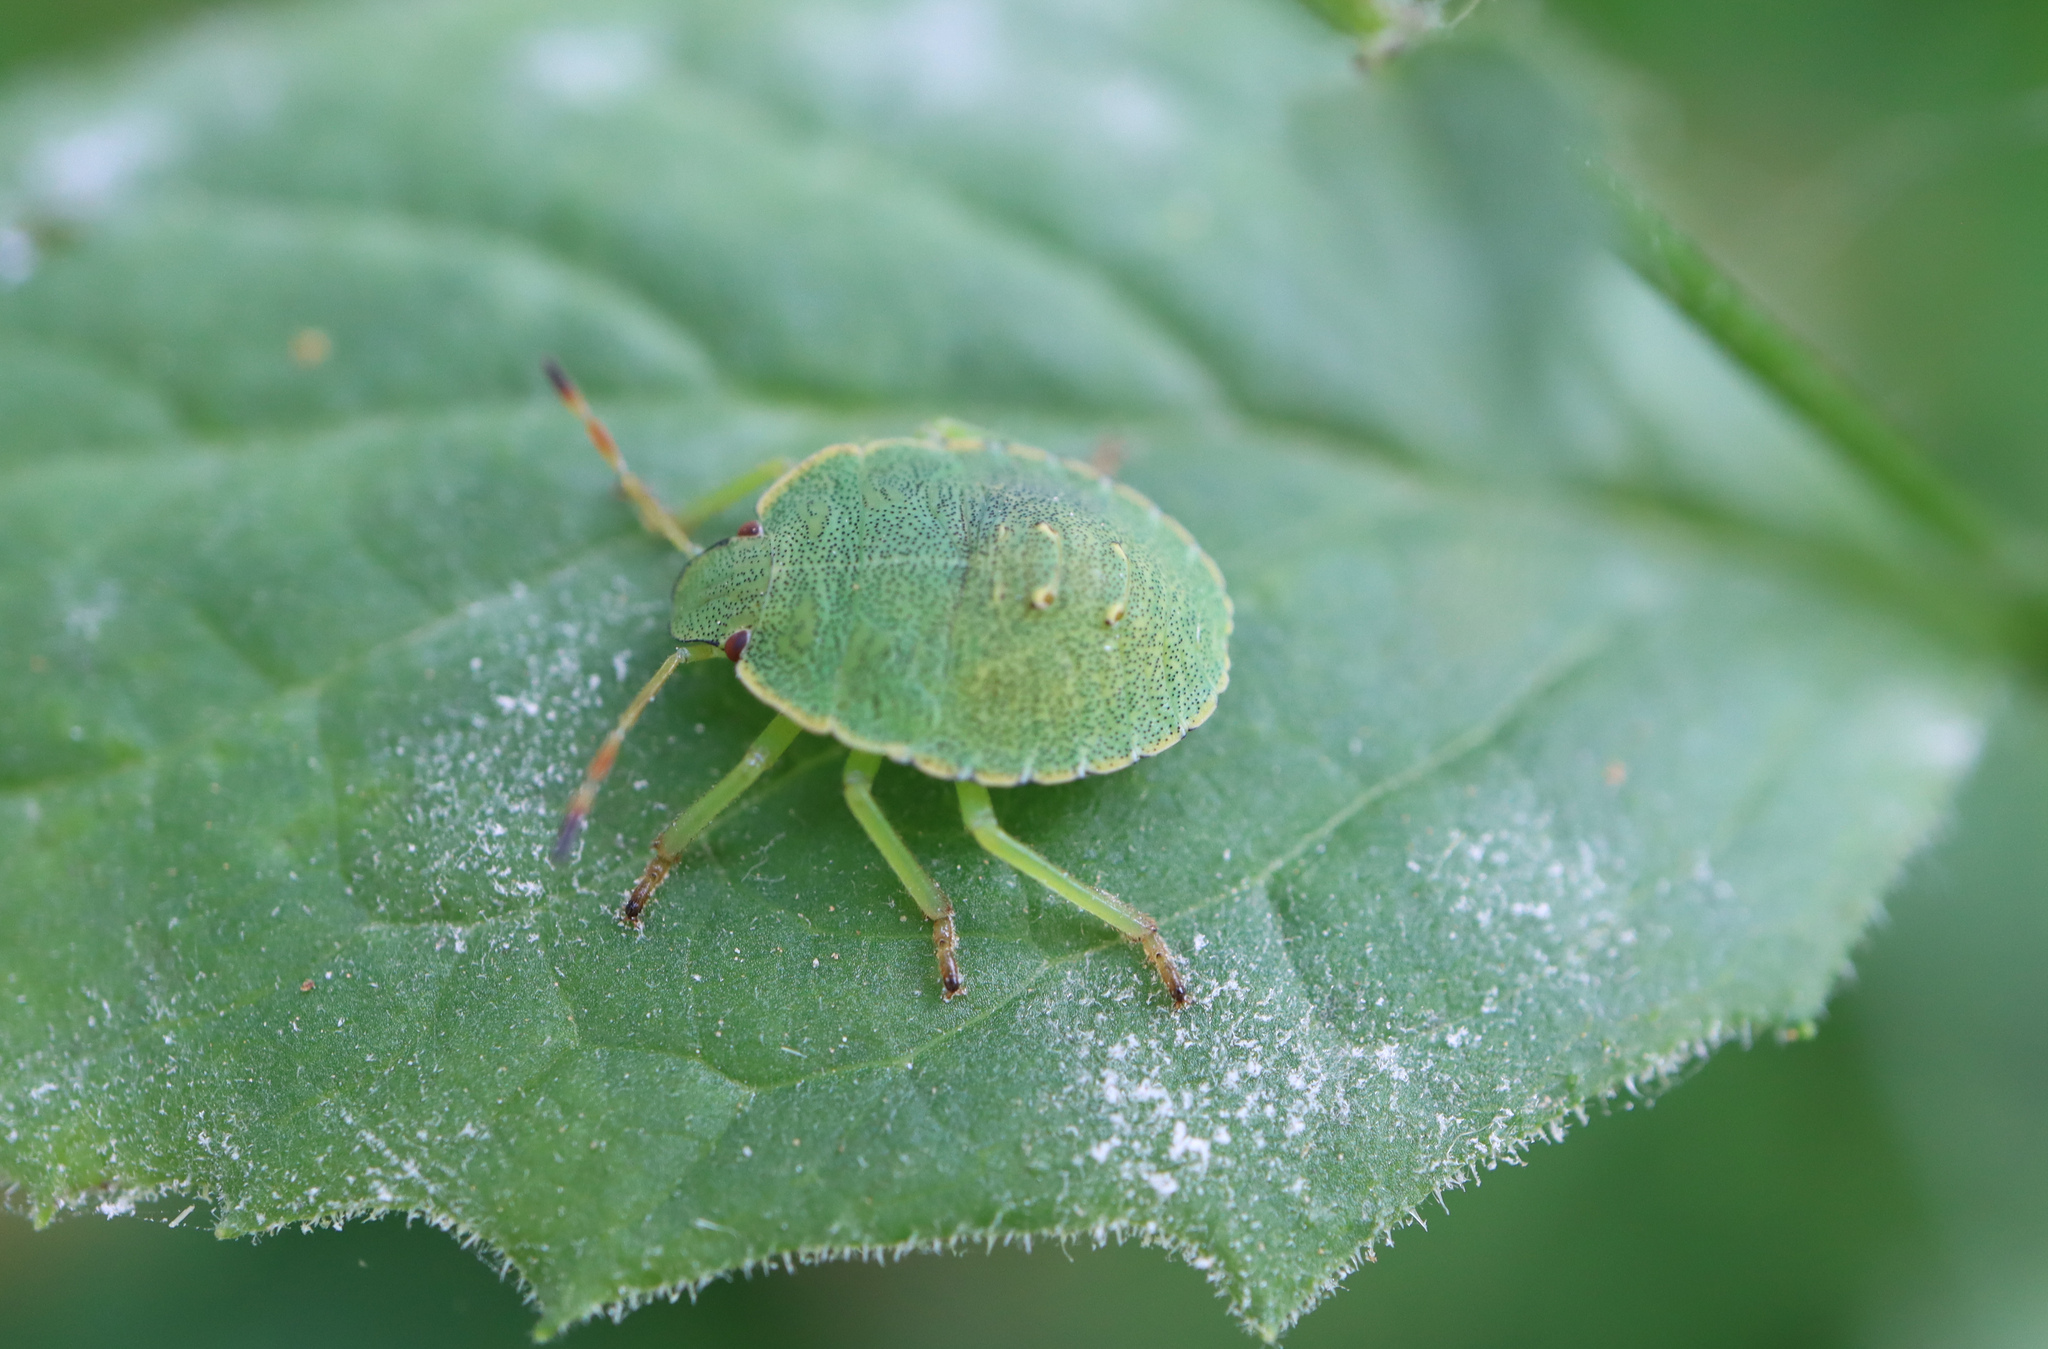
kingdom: Animalia
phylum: Arthropoda
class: Insecta
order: Hemiptera
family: Pentatomidae
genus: Palomena
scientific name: Palomena prasina
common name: Green shieldbug
